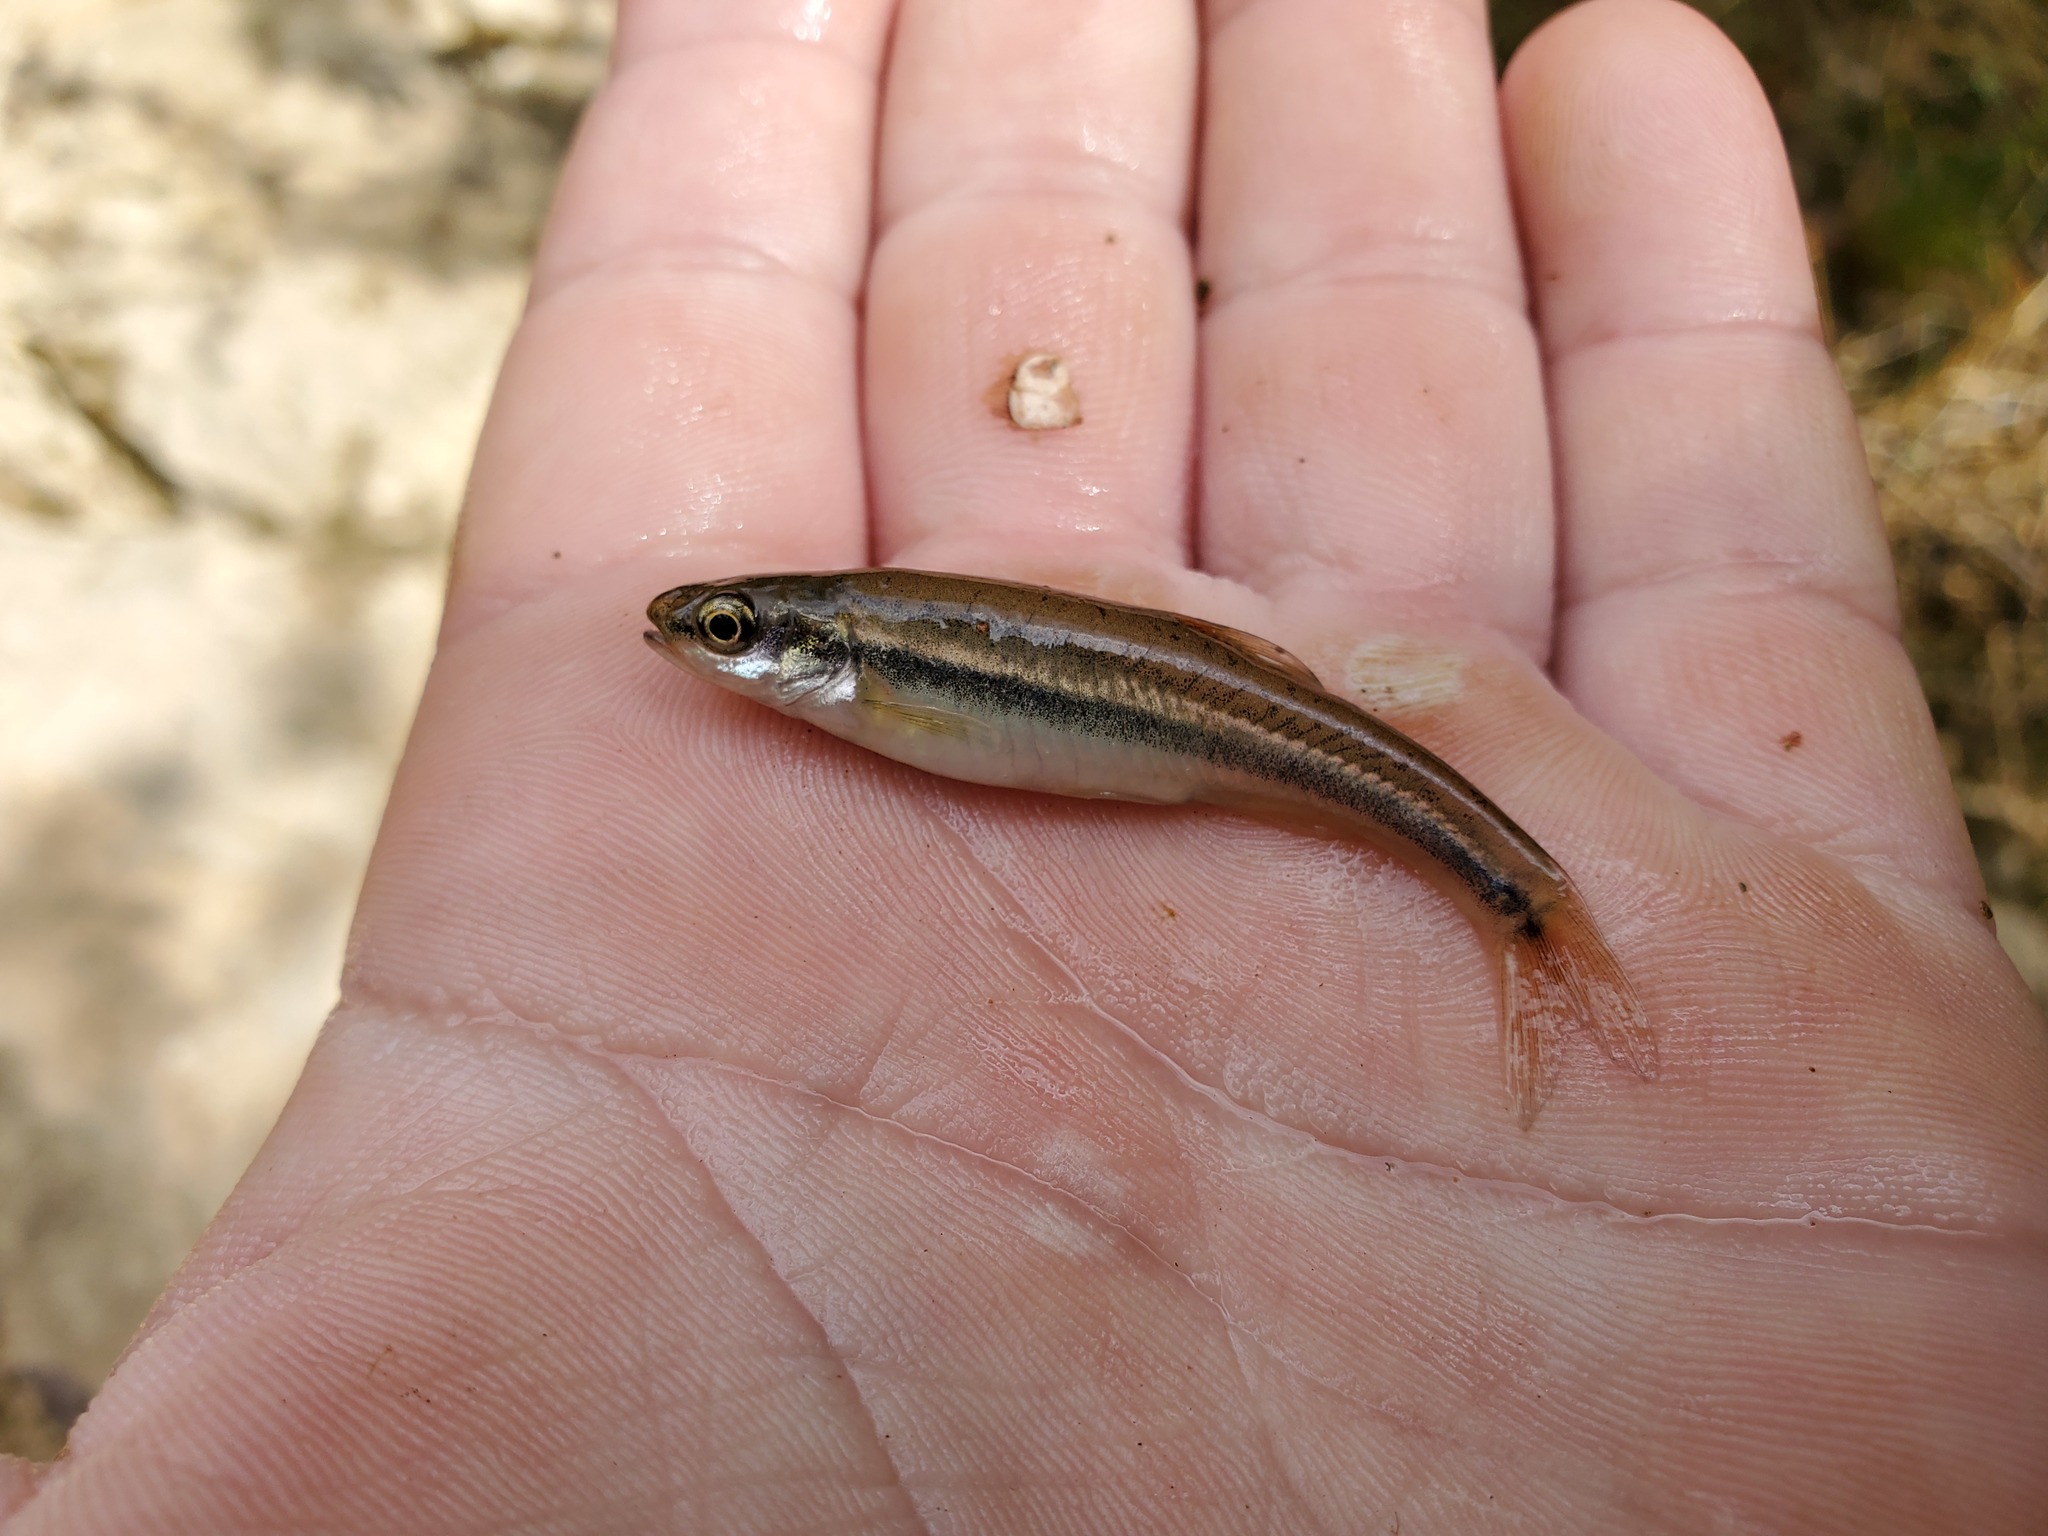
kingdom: Animalia
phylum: Chordata
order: Cypriniformes
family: Cyprinidae
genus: Chrosomus
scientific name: Chrosomus erythrogaster
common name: Southern redbelly dace
